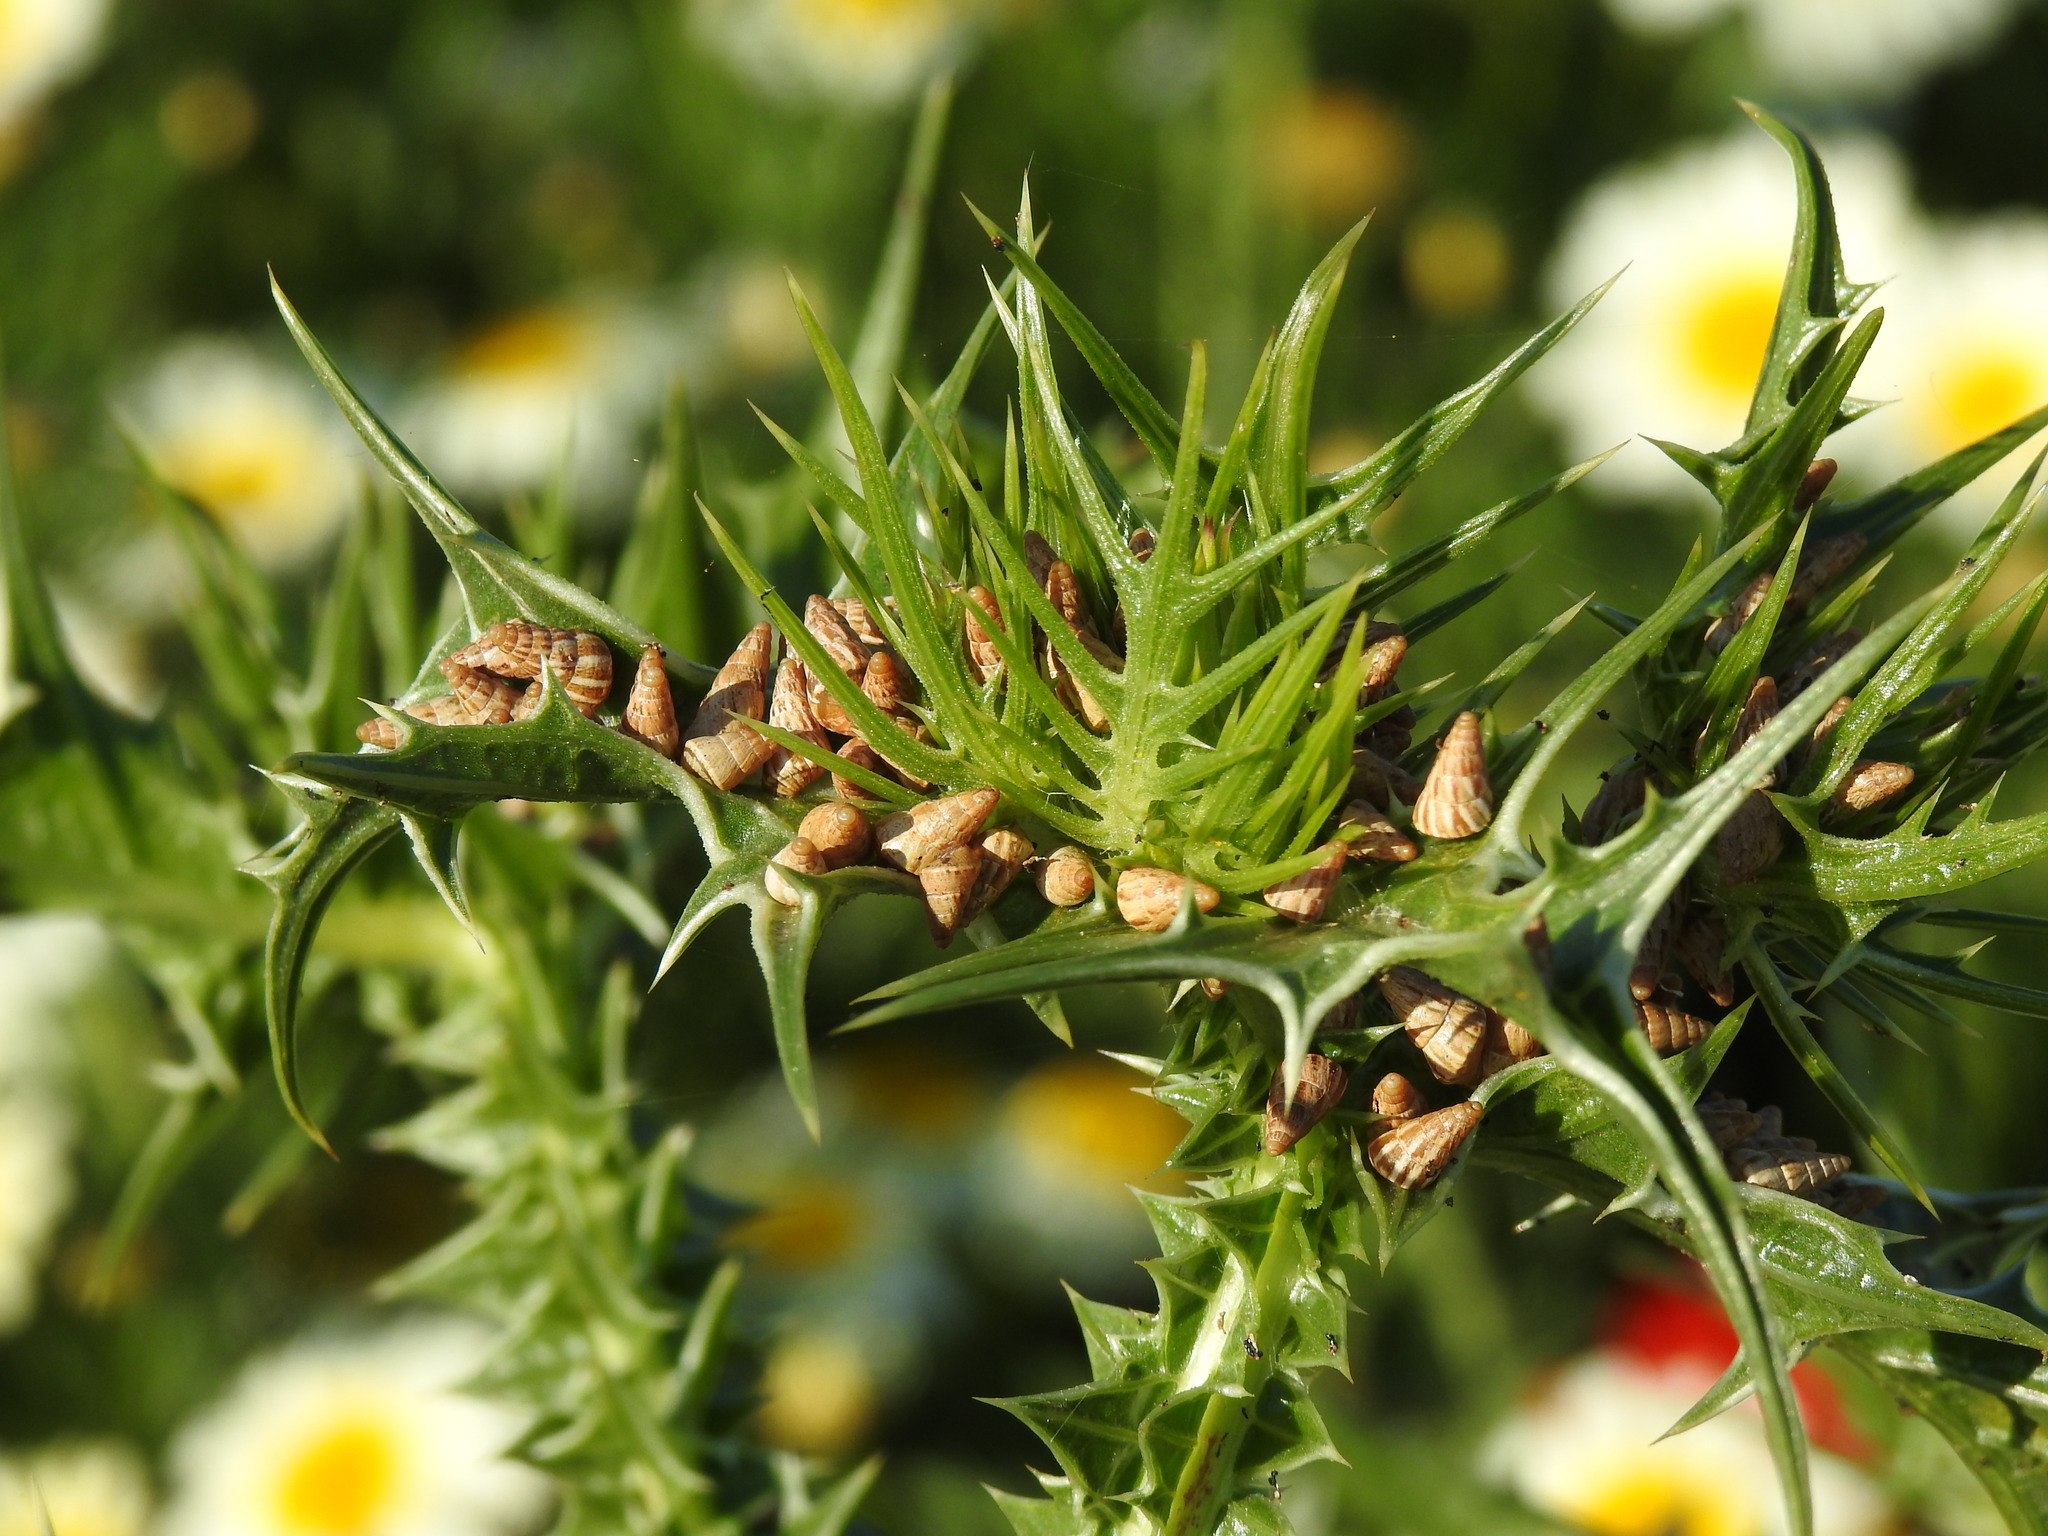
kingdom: Plantae
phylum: Tracheophyta
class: Magnoliopsida
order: Asterales
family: Asteraceae
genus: Scolymus
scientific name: Scolymus maculatus
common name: Spotted thistle
